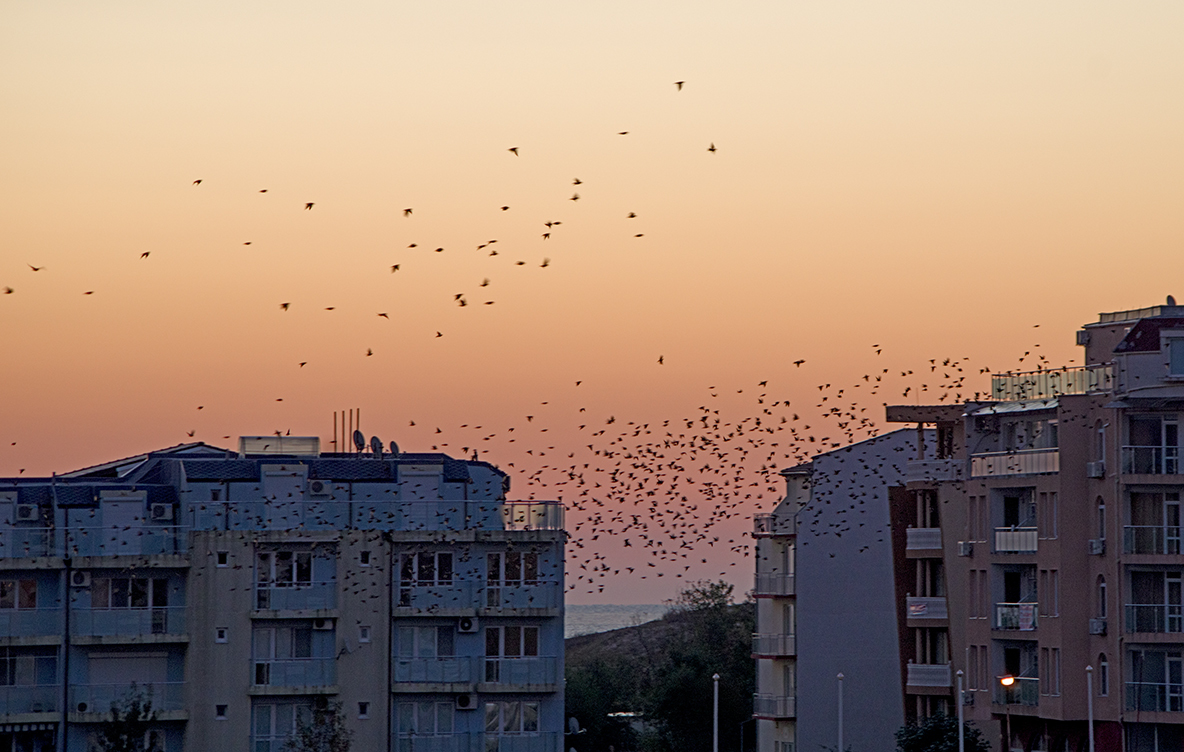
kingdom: Animalia
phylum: Chordata
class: Aves
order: Passeriformes
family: Sturnidae
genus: Sturnus
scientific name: Sturnus vulgaris
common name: Common starling
